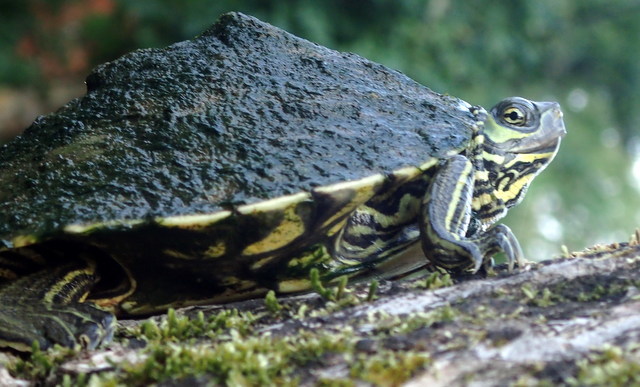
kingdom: Animalia
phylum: Chordata
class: Testudines
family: Emydidae
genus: Graptemys
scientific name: Graptemys barbouri
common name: Barbour's map turtle
